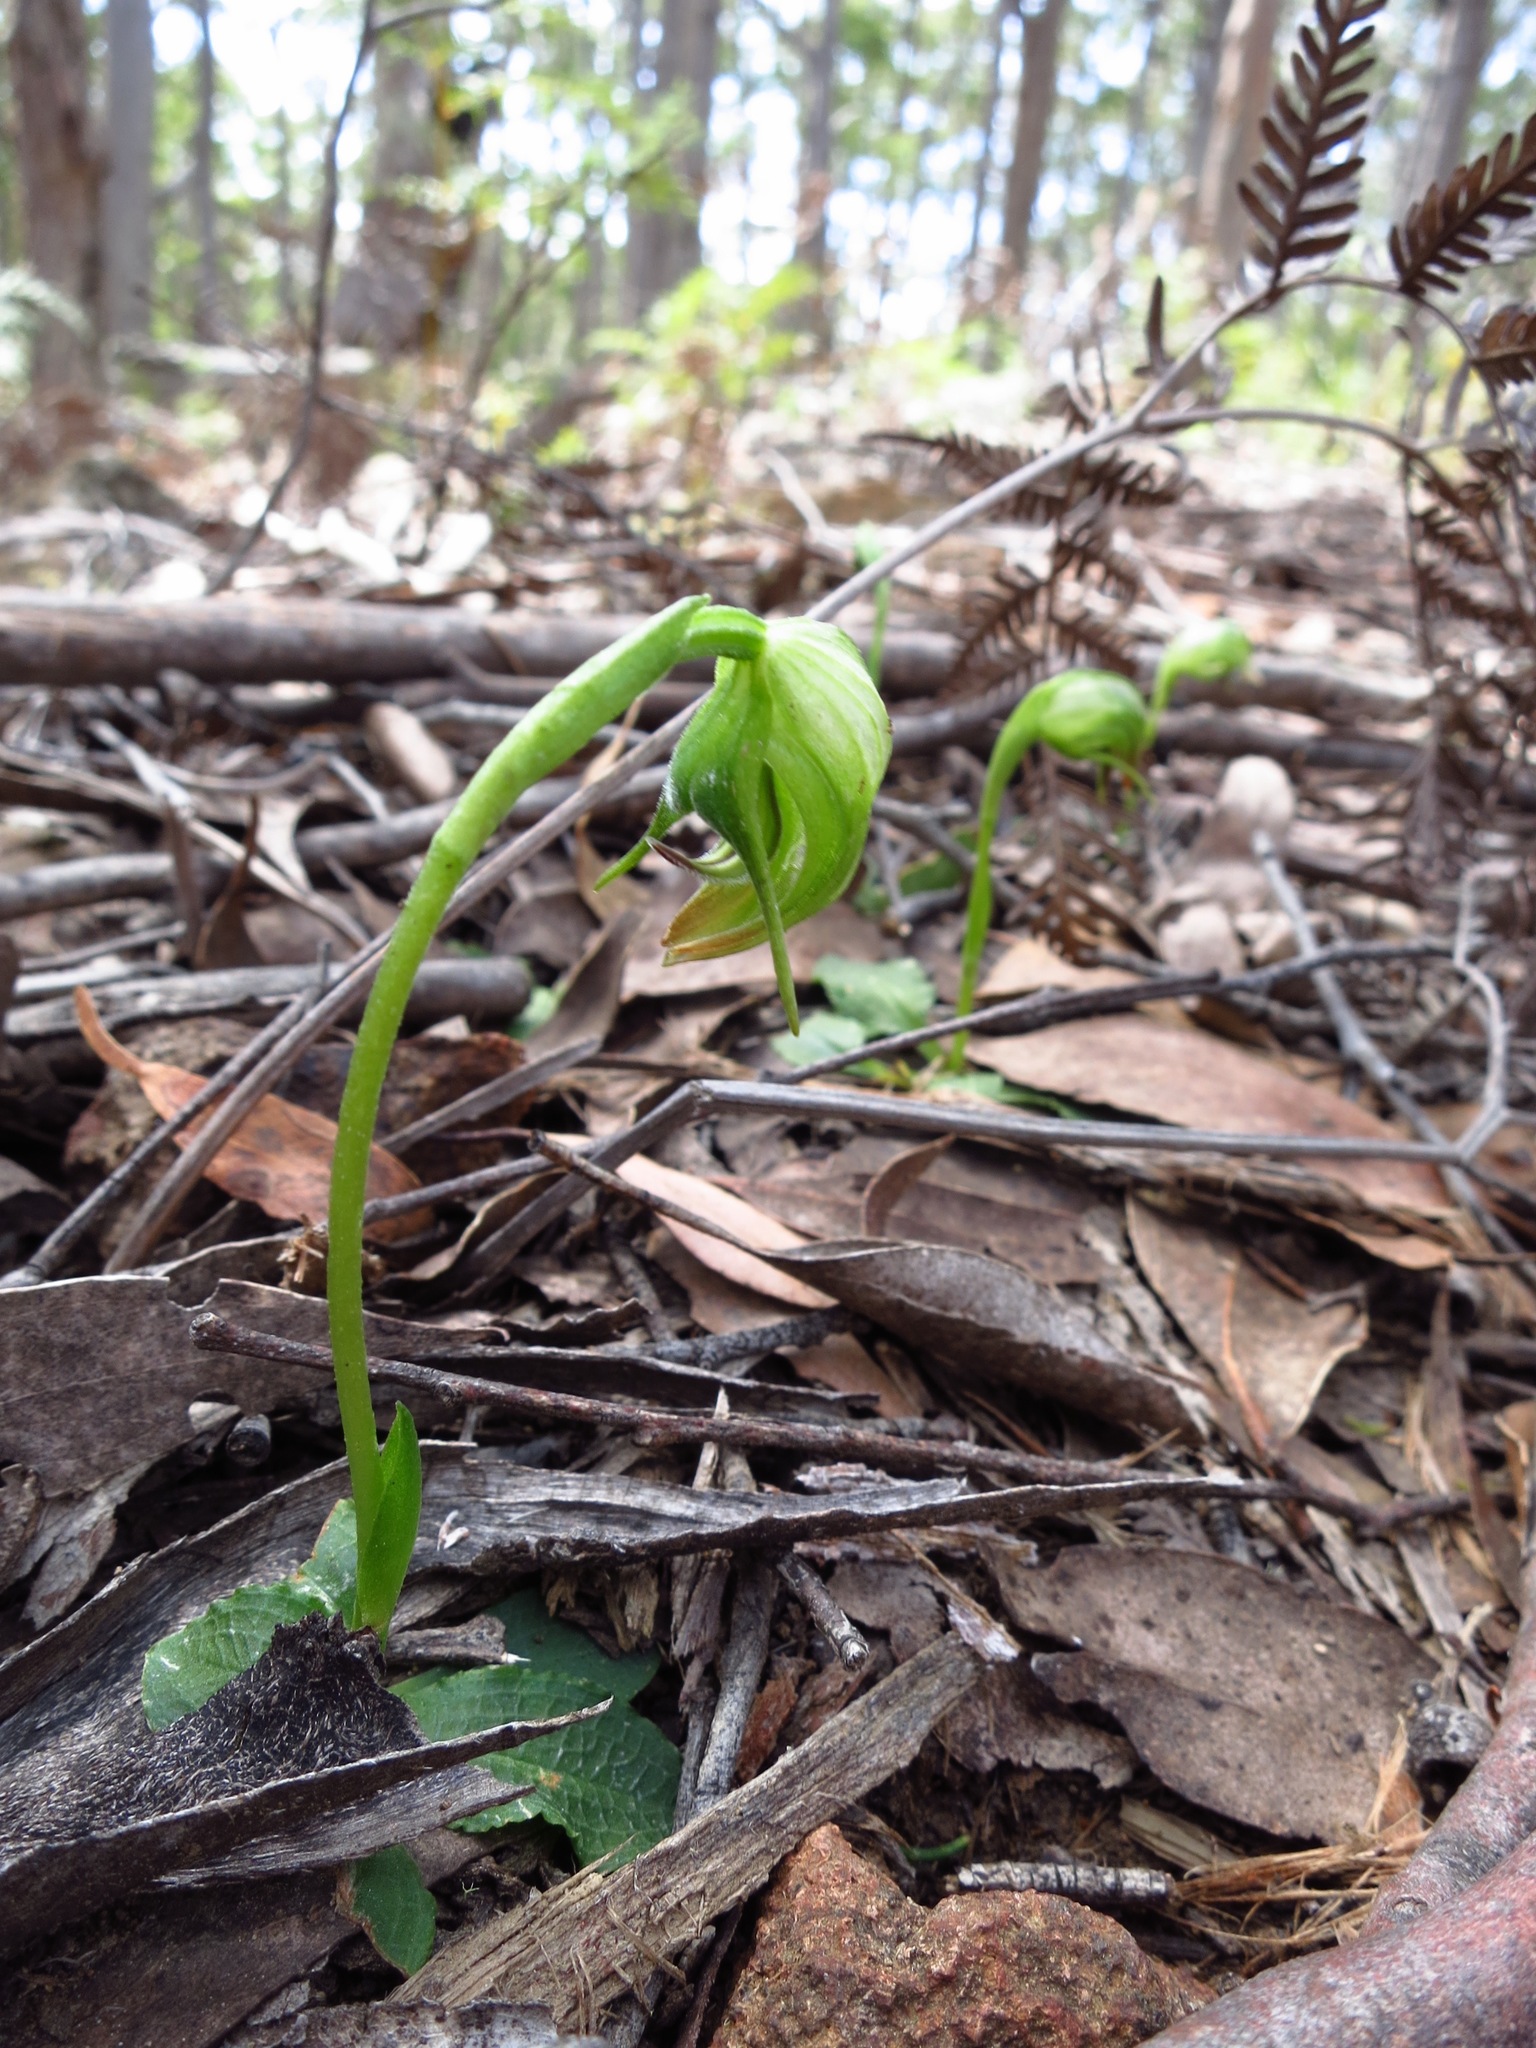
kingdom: Plantae
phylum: Tracheophyta
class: Liliopsida
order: Asparagales
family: Orchidaceae
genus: Pterostylis
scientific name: Pterostylis nutans
